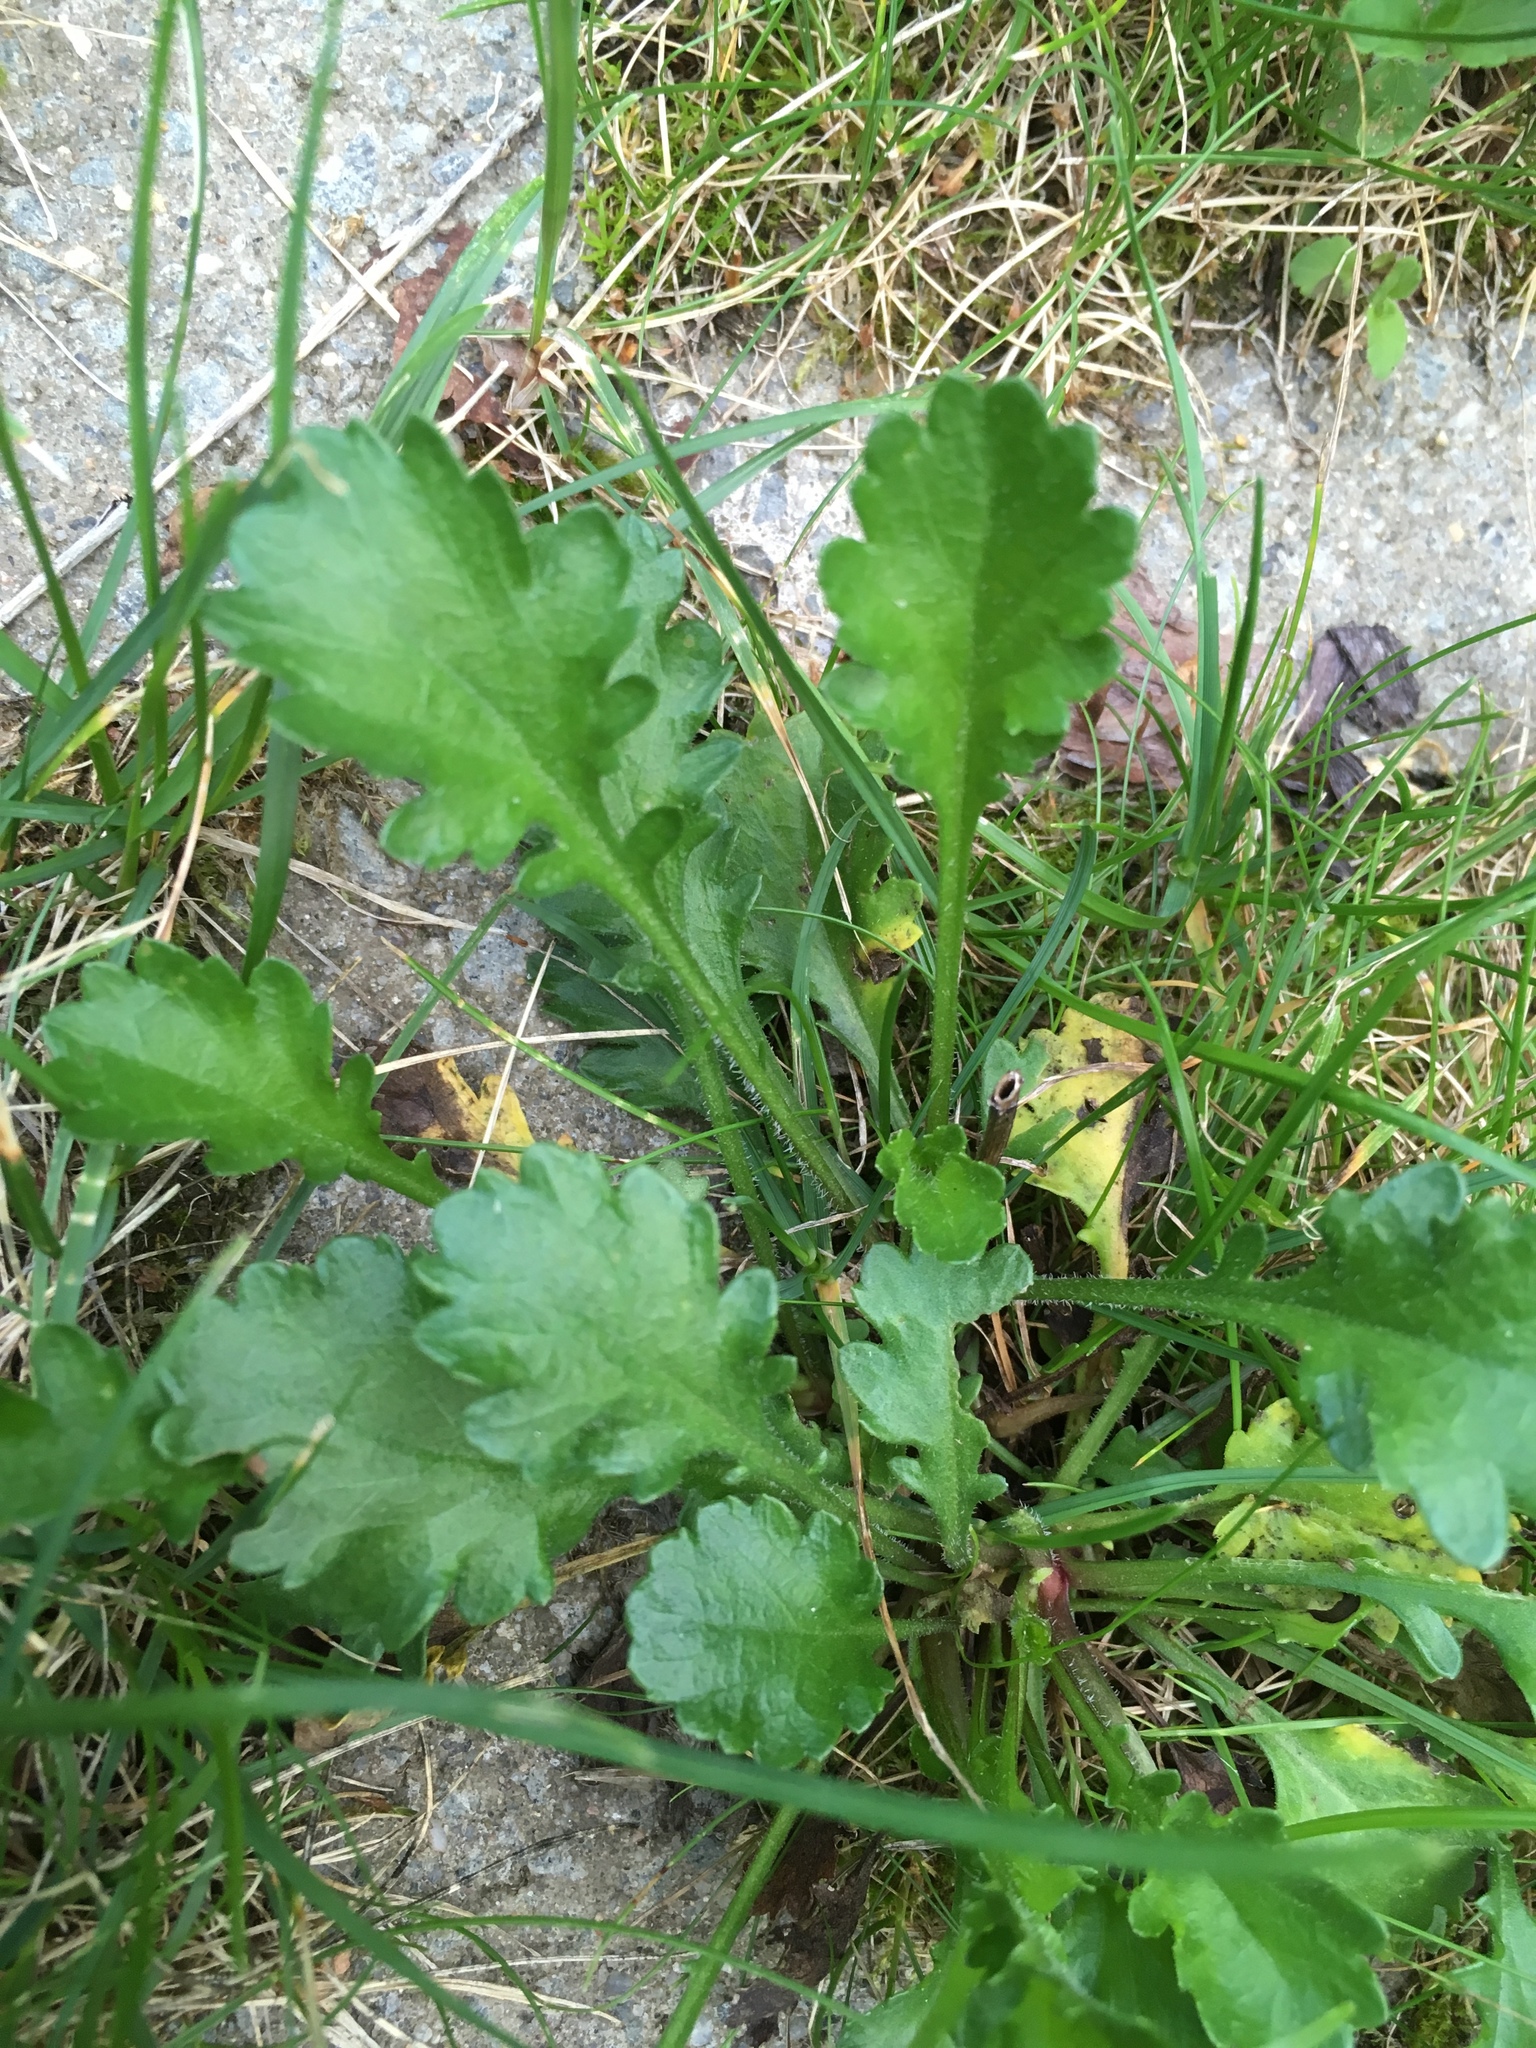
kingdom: Plantae
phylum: Tracheophyta
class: Magnoliopsida
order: Asterales
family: Asteraceae
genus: Leucanthemum
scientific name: Leucanthemum vulgare
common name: Oxeye daisy
